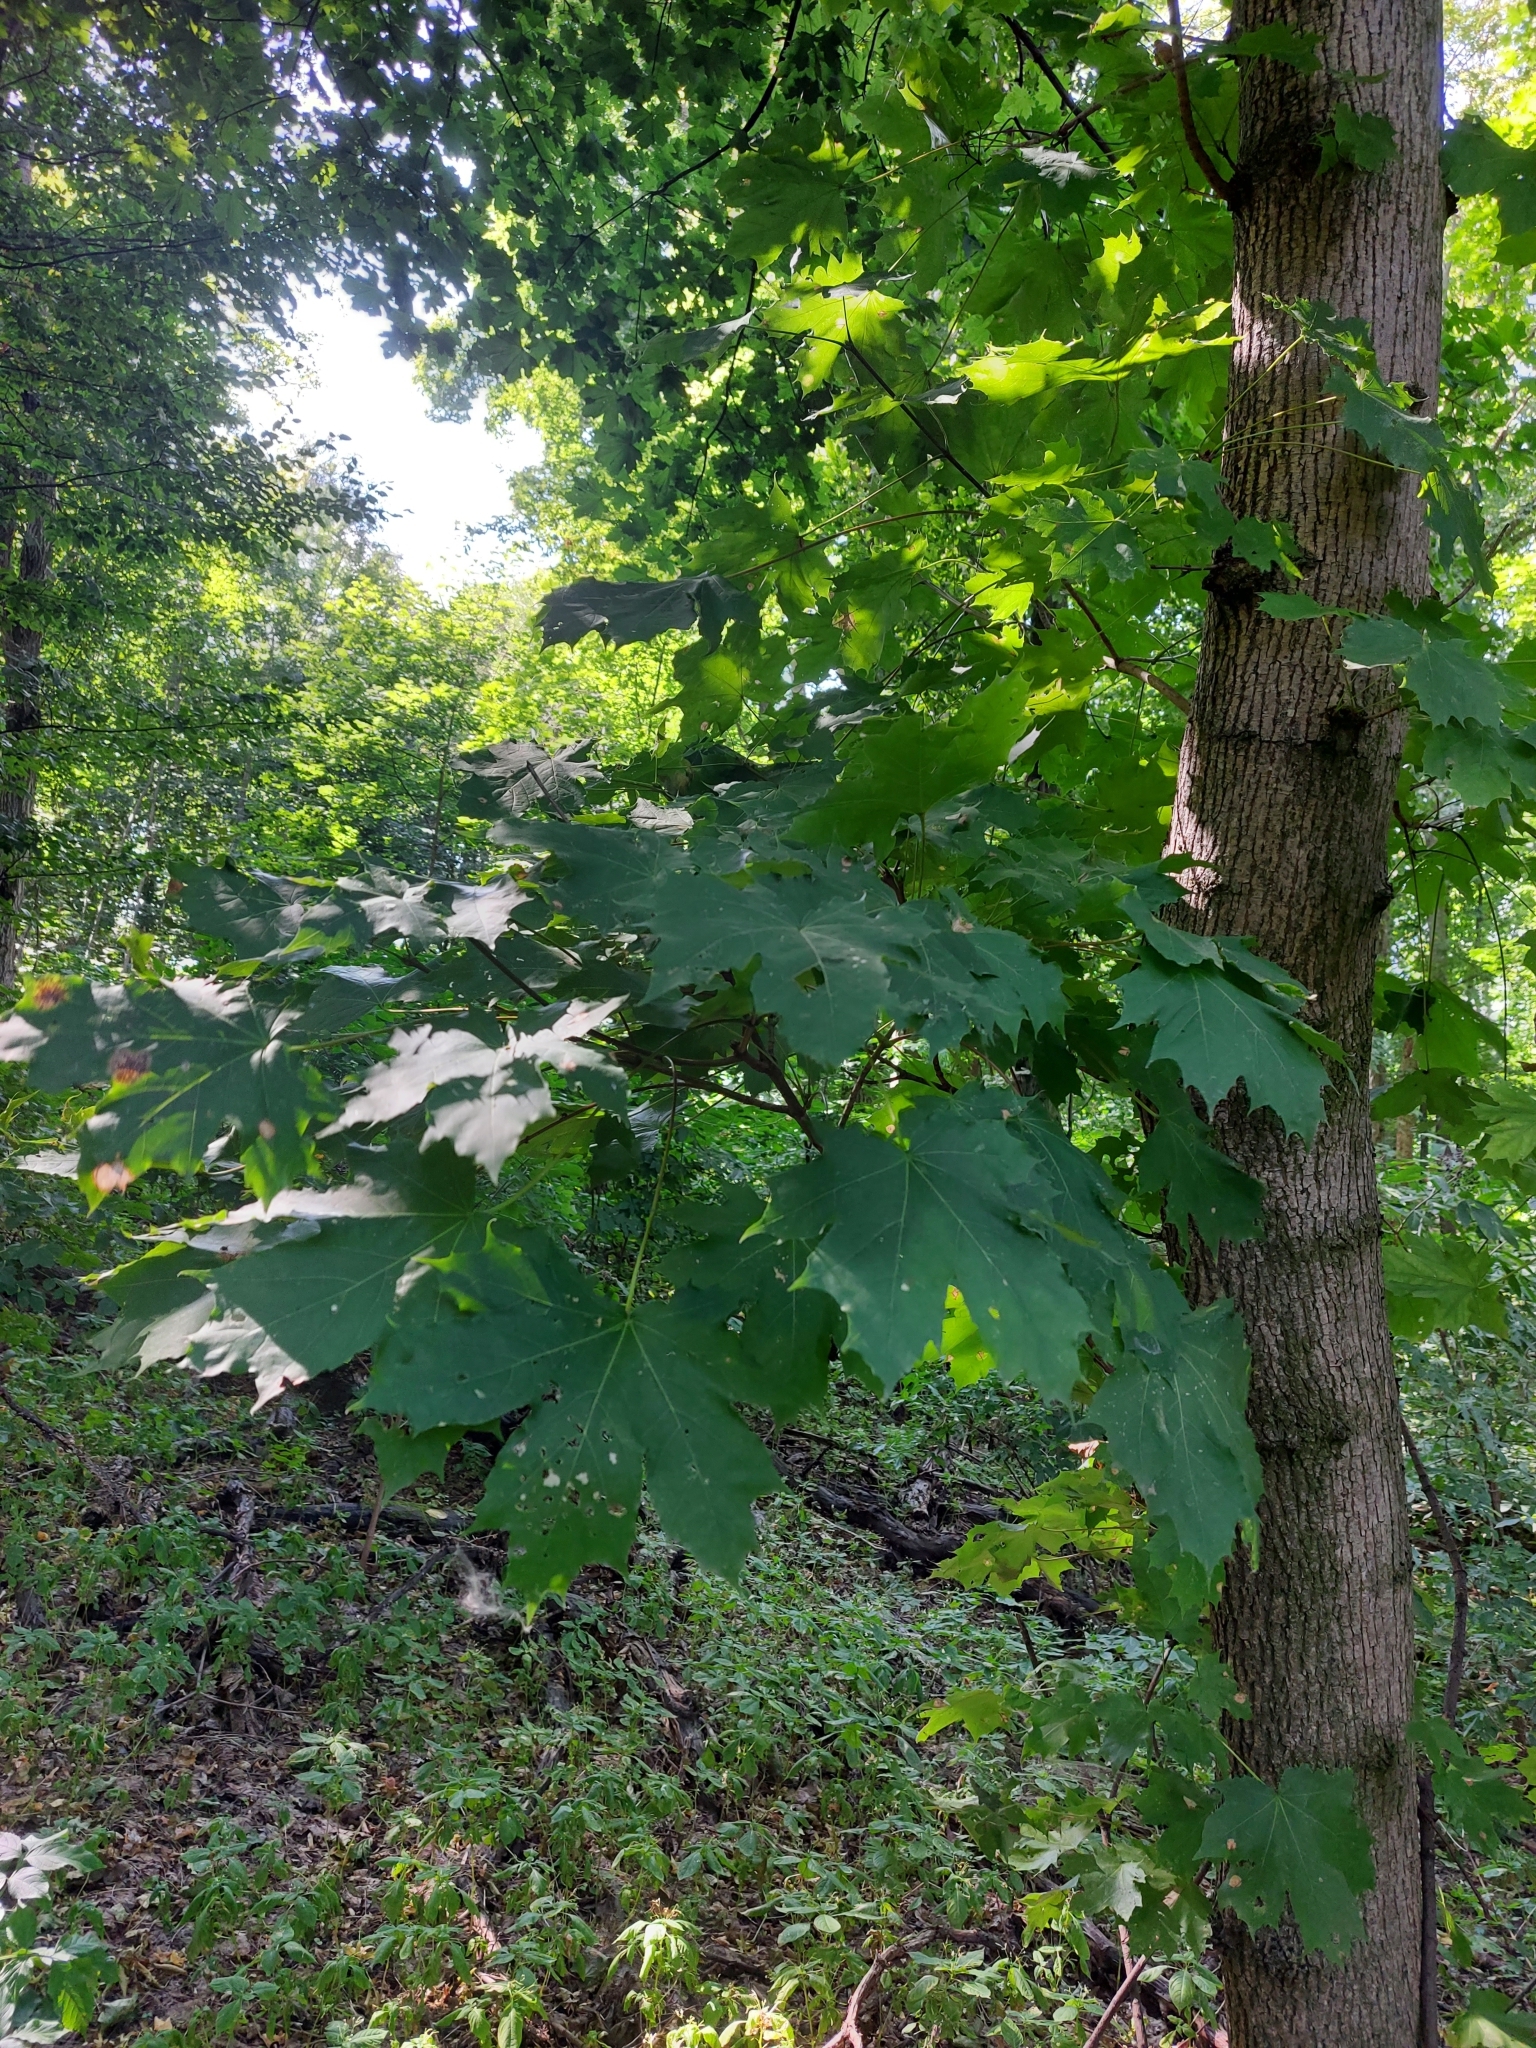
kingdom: Plantae
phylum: Tracheophyta
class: Magnoliopsida
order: Sapindales
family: Sapindaceae
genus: Acer
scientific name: Acer platanoides
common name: Norway maple
